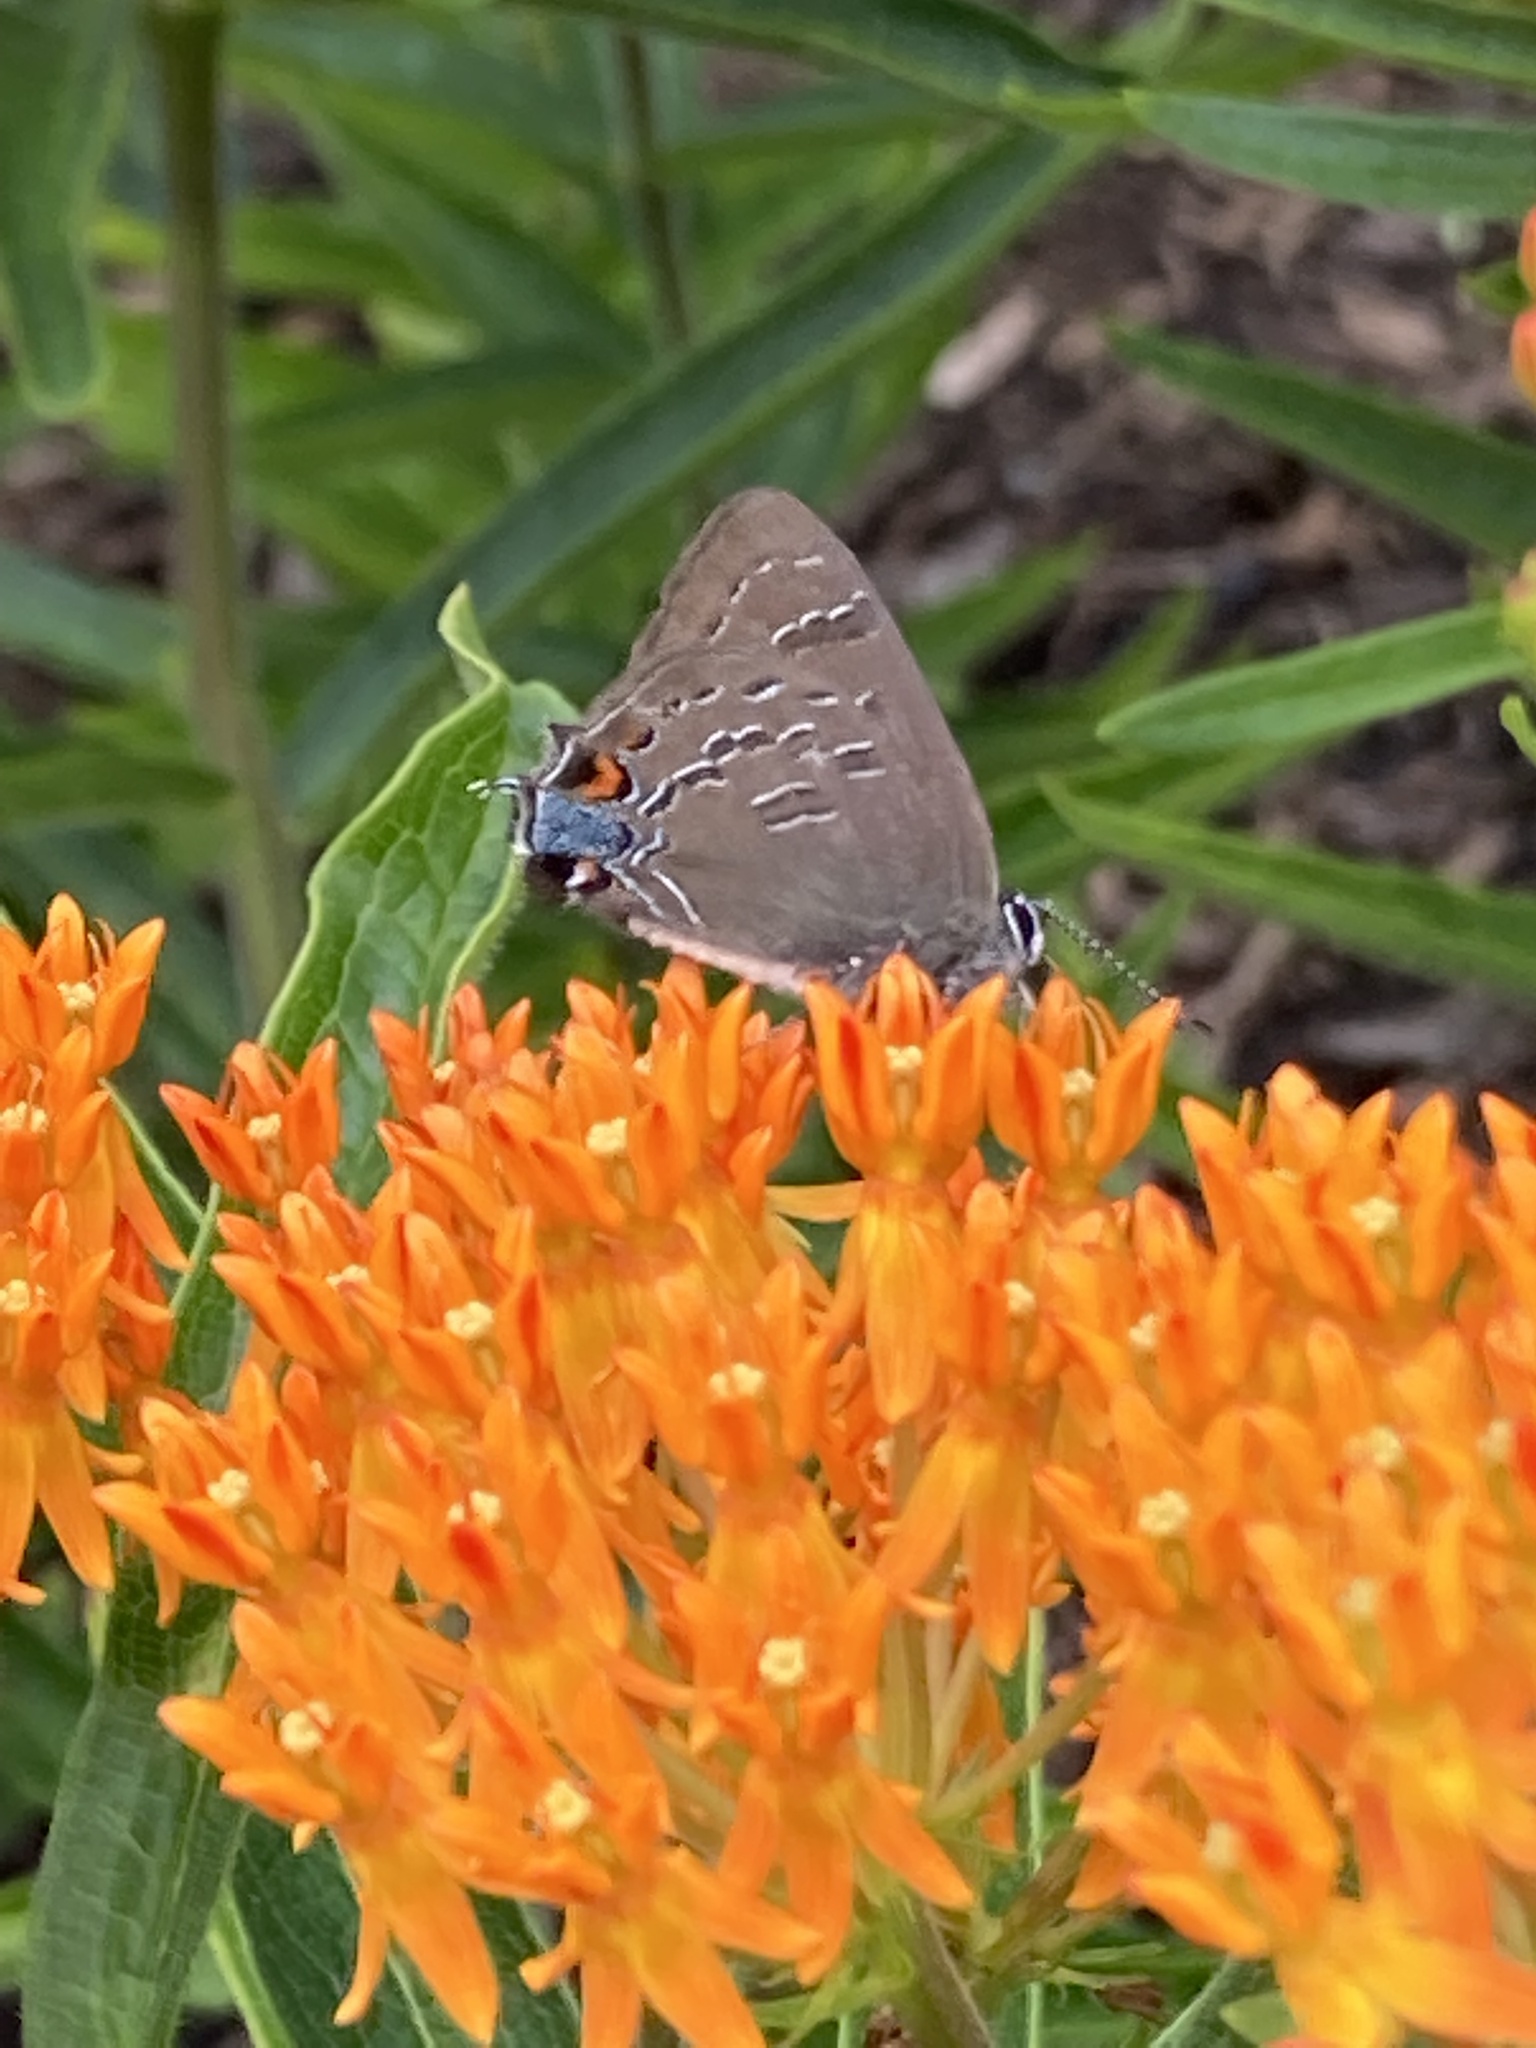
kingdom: Animalia
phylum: Arthropoda
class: Insecta
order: Lepidoptera
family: Lycaenidae
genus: Satyrium
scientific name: Satyrium calanus
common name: Banded hairstreak
